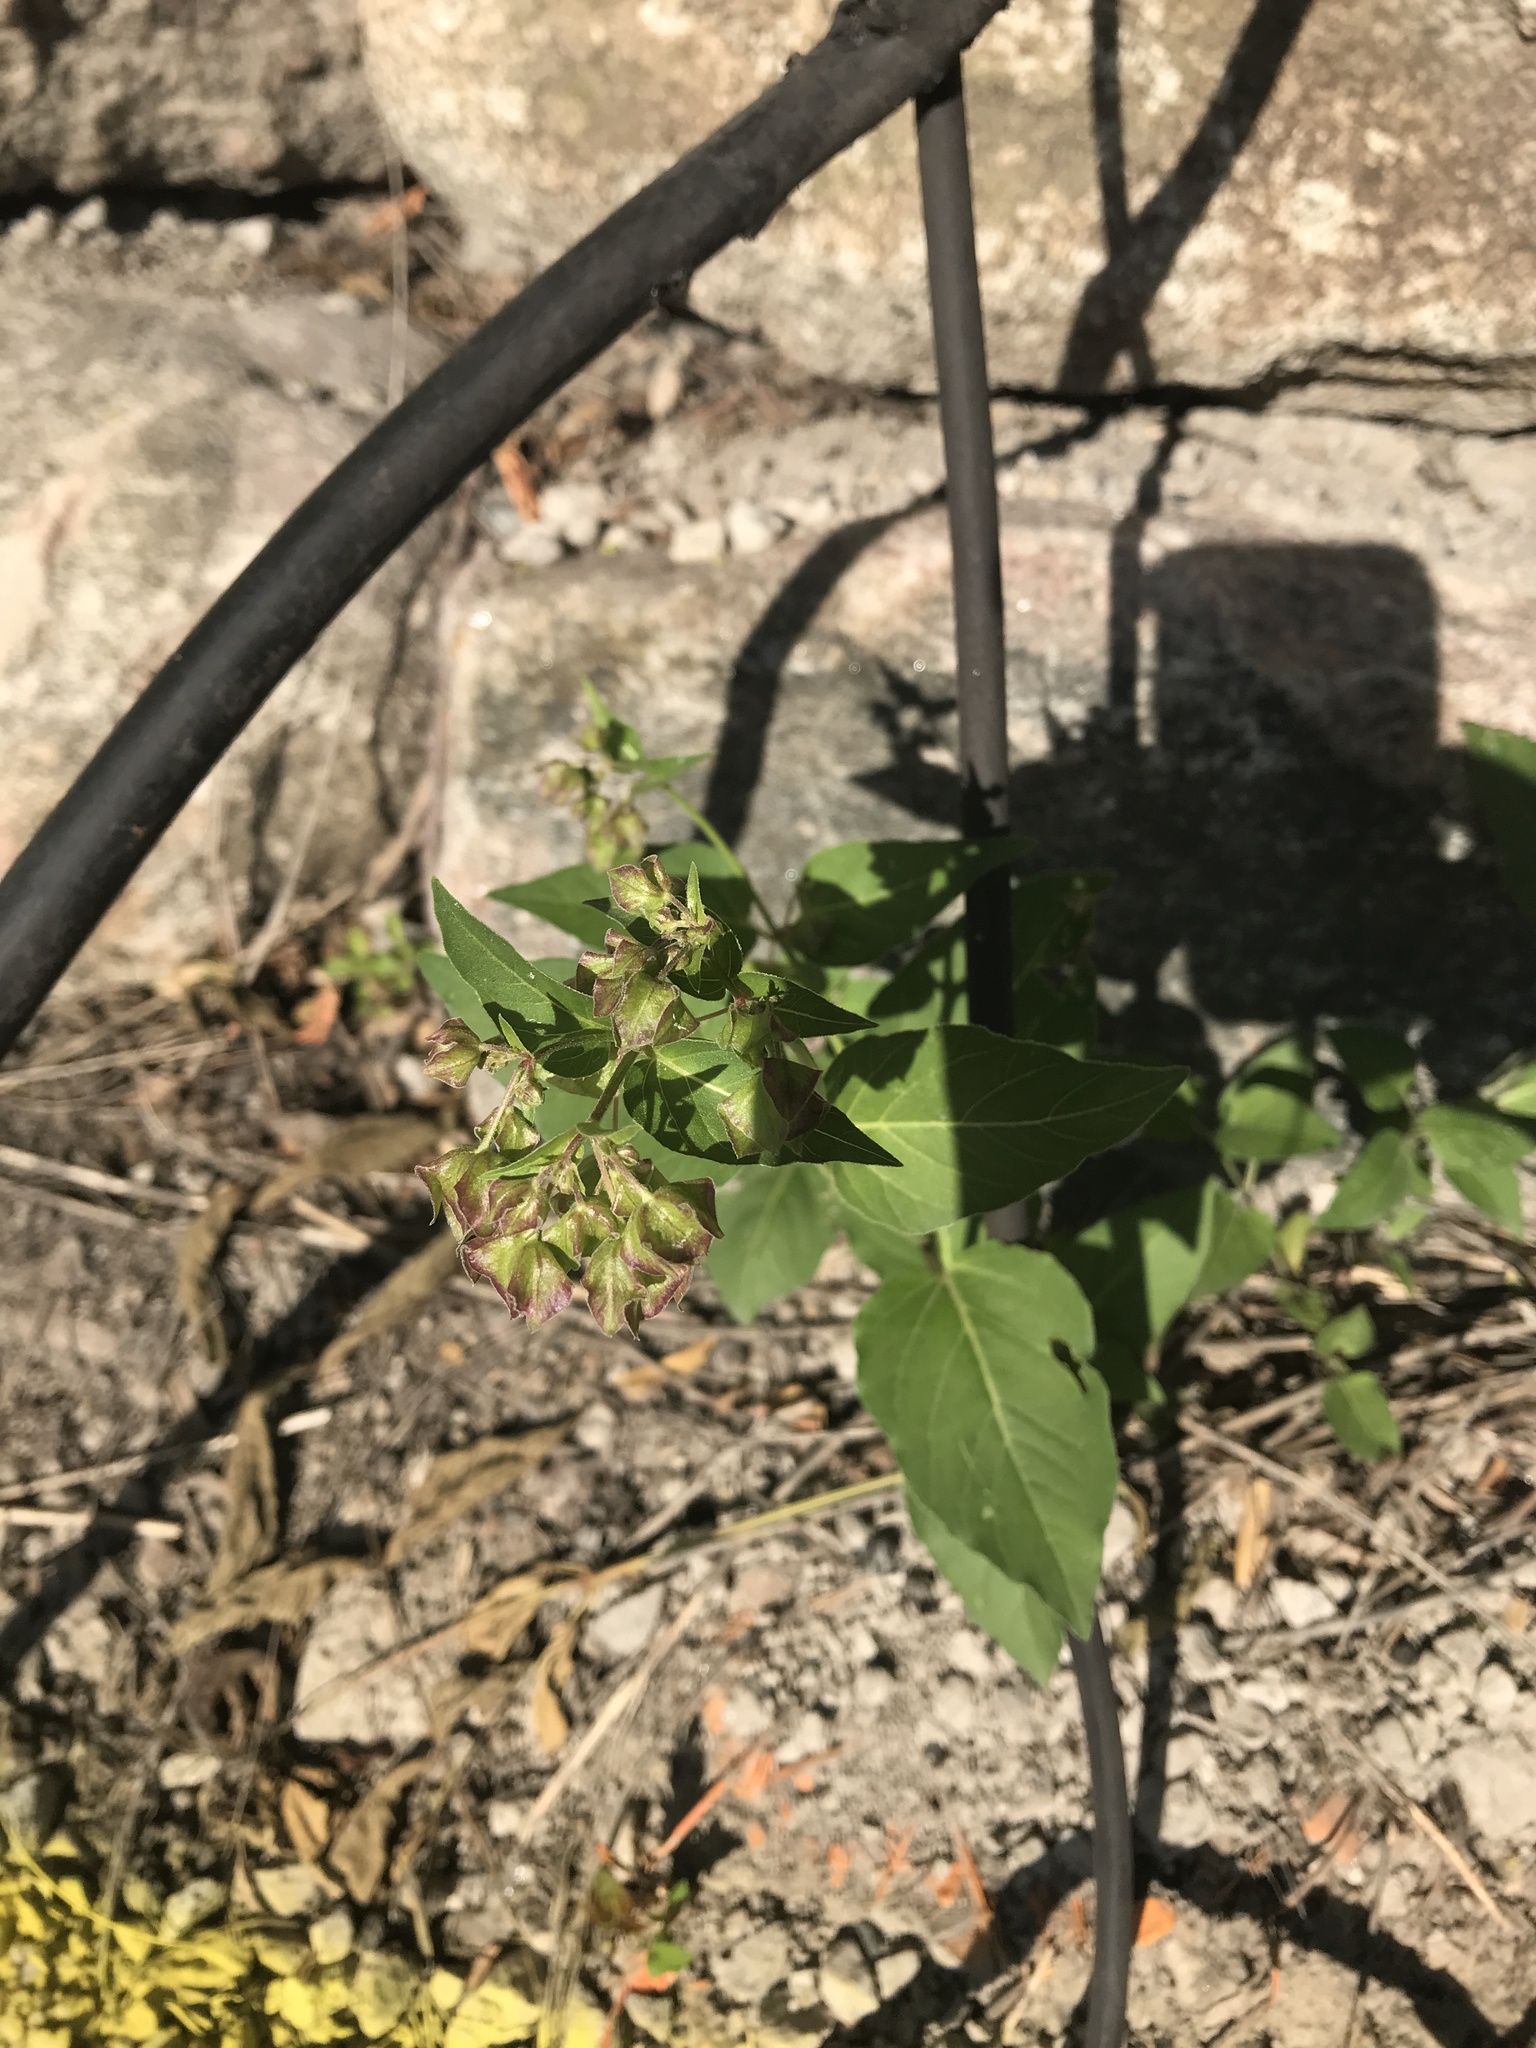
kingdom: Plantae
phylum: Tracheophyta
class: Magnoliopsida
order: Caryophyllales
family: Nyctaginaceae
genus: Mirabilis
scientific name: Mirabilis nyctaginea
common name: Umbrella wort
